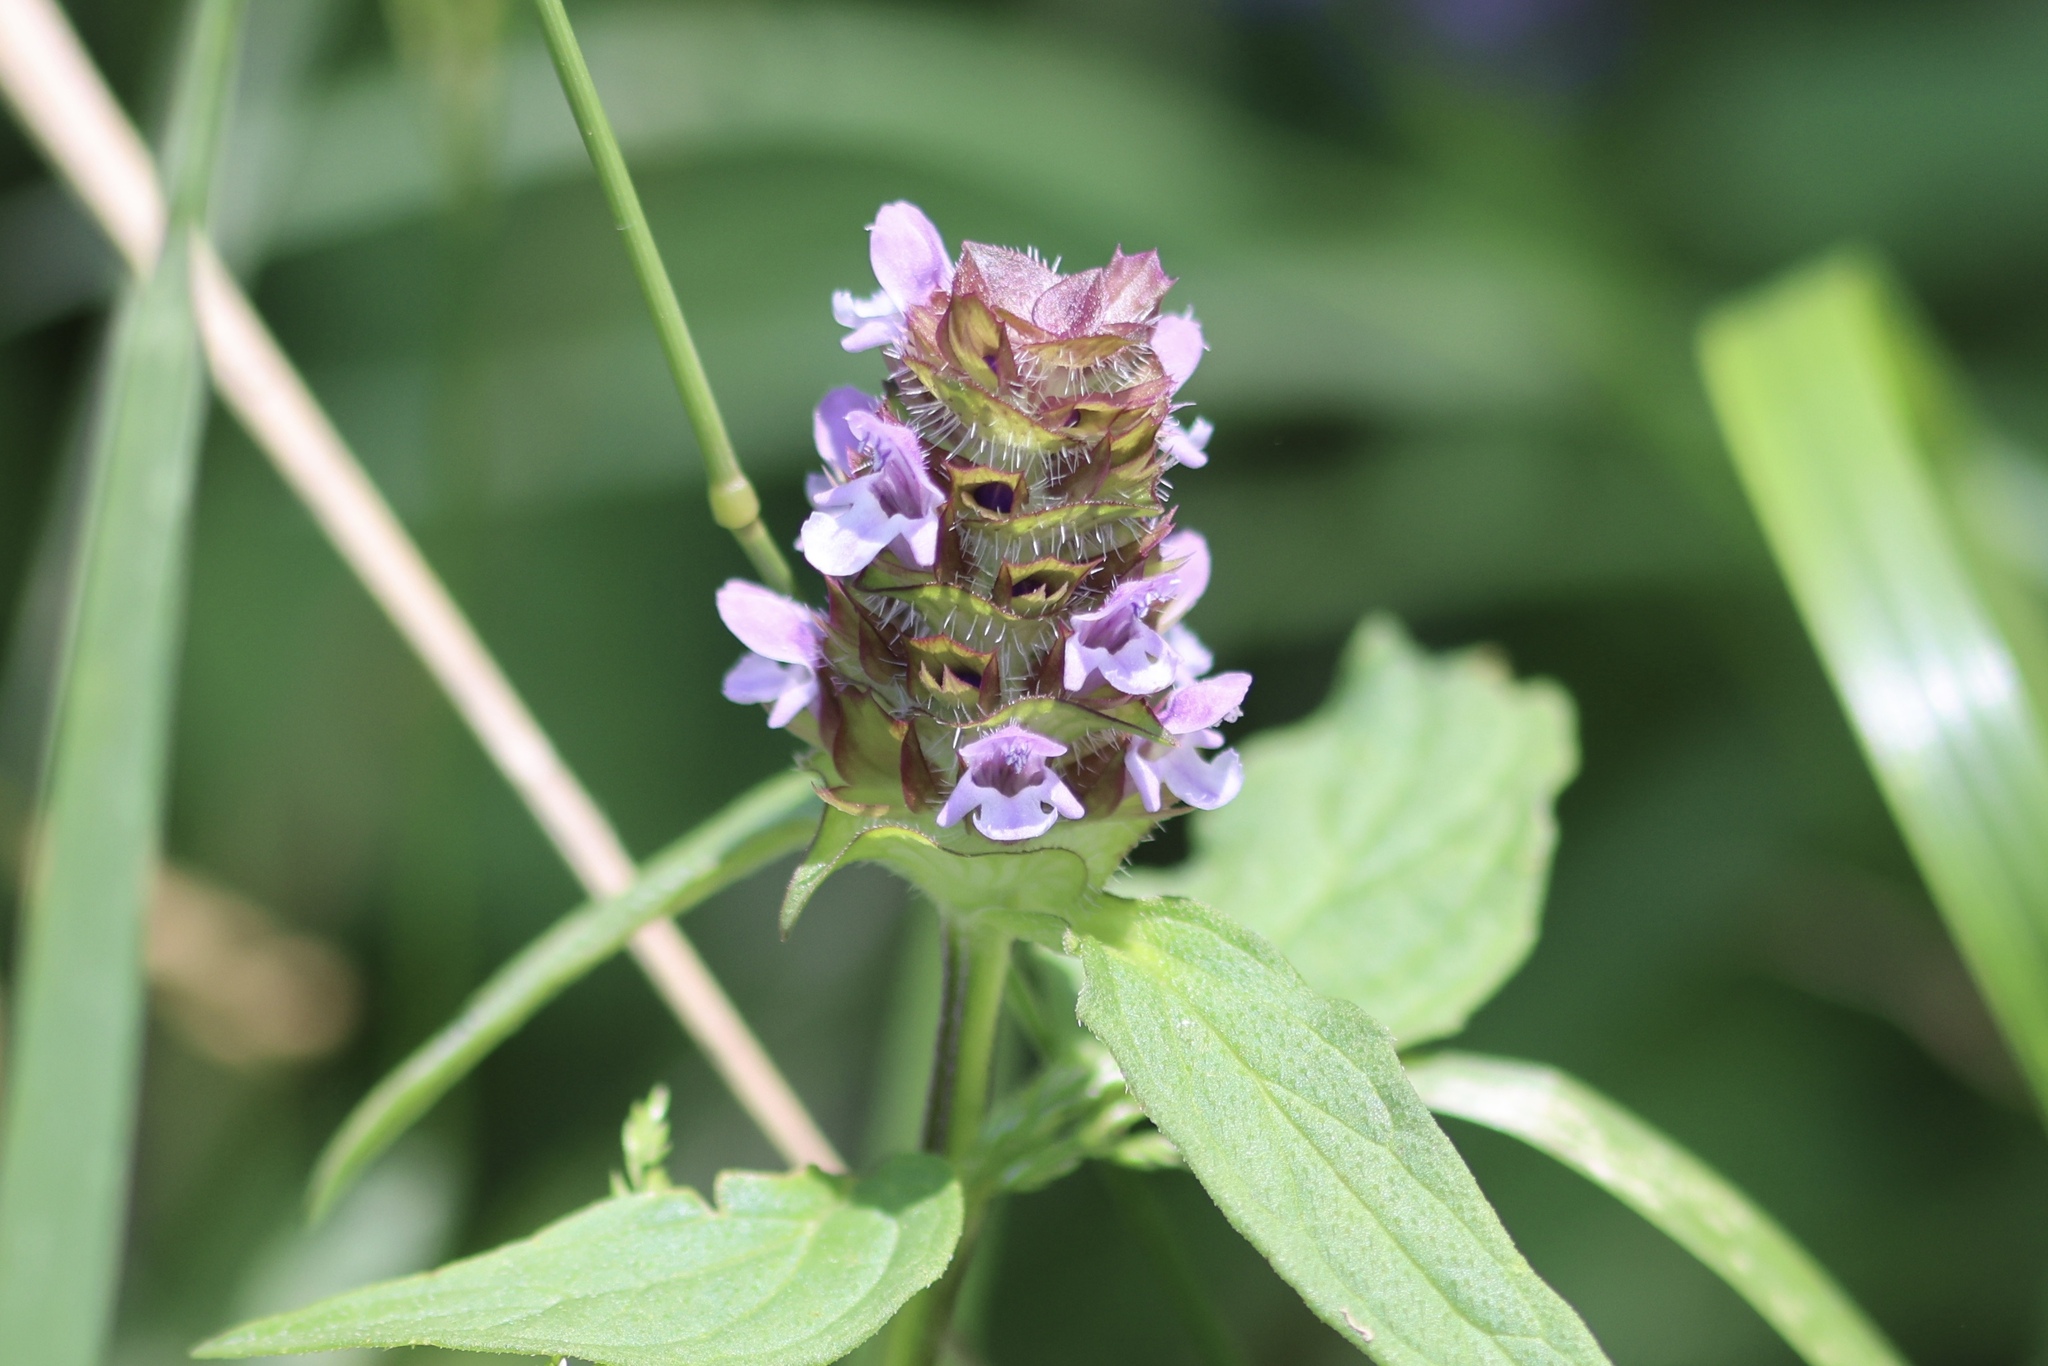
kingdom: Plantae
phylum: Tracheophyta
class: Magnoliopsida
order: Lamiales
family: Lamiaceae
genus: Prunella
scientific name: Prunella vulgaris
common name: Heal-all
